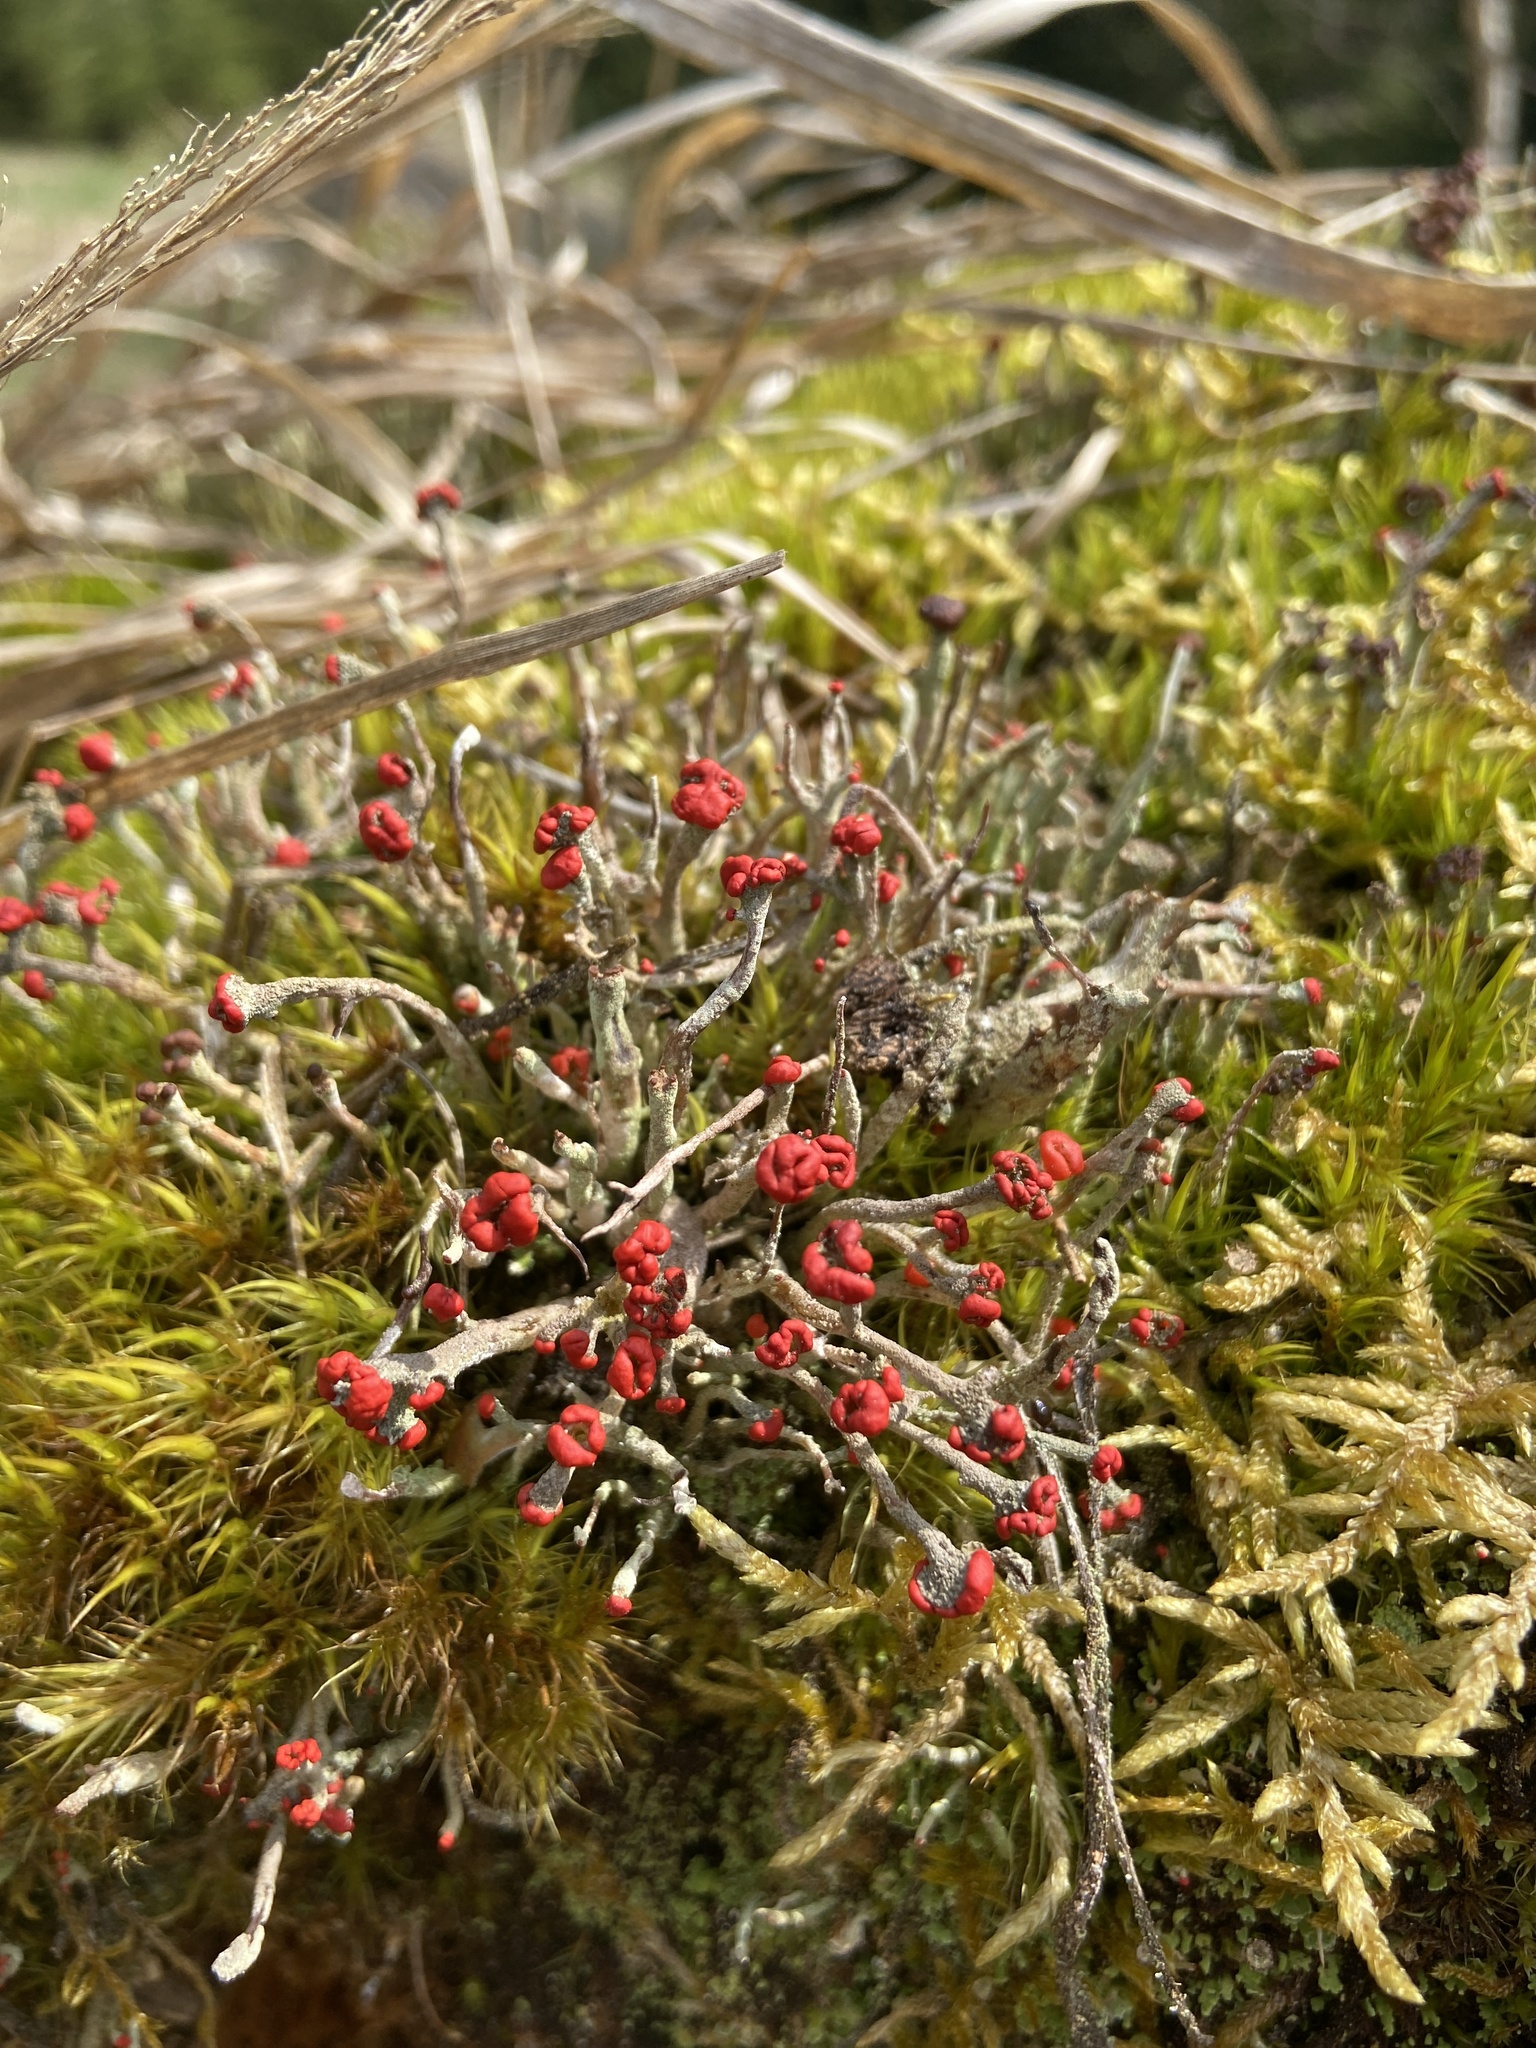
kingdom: Fungi
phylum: Ascomycota
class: Lecanoromycetes
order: Lecanorales
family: Cladoniaceae
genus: Cladonia
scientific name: Cladonia floerkeana
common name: Gritty british soldiers lichen
